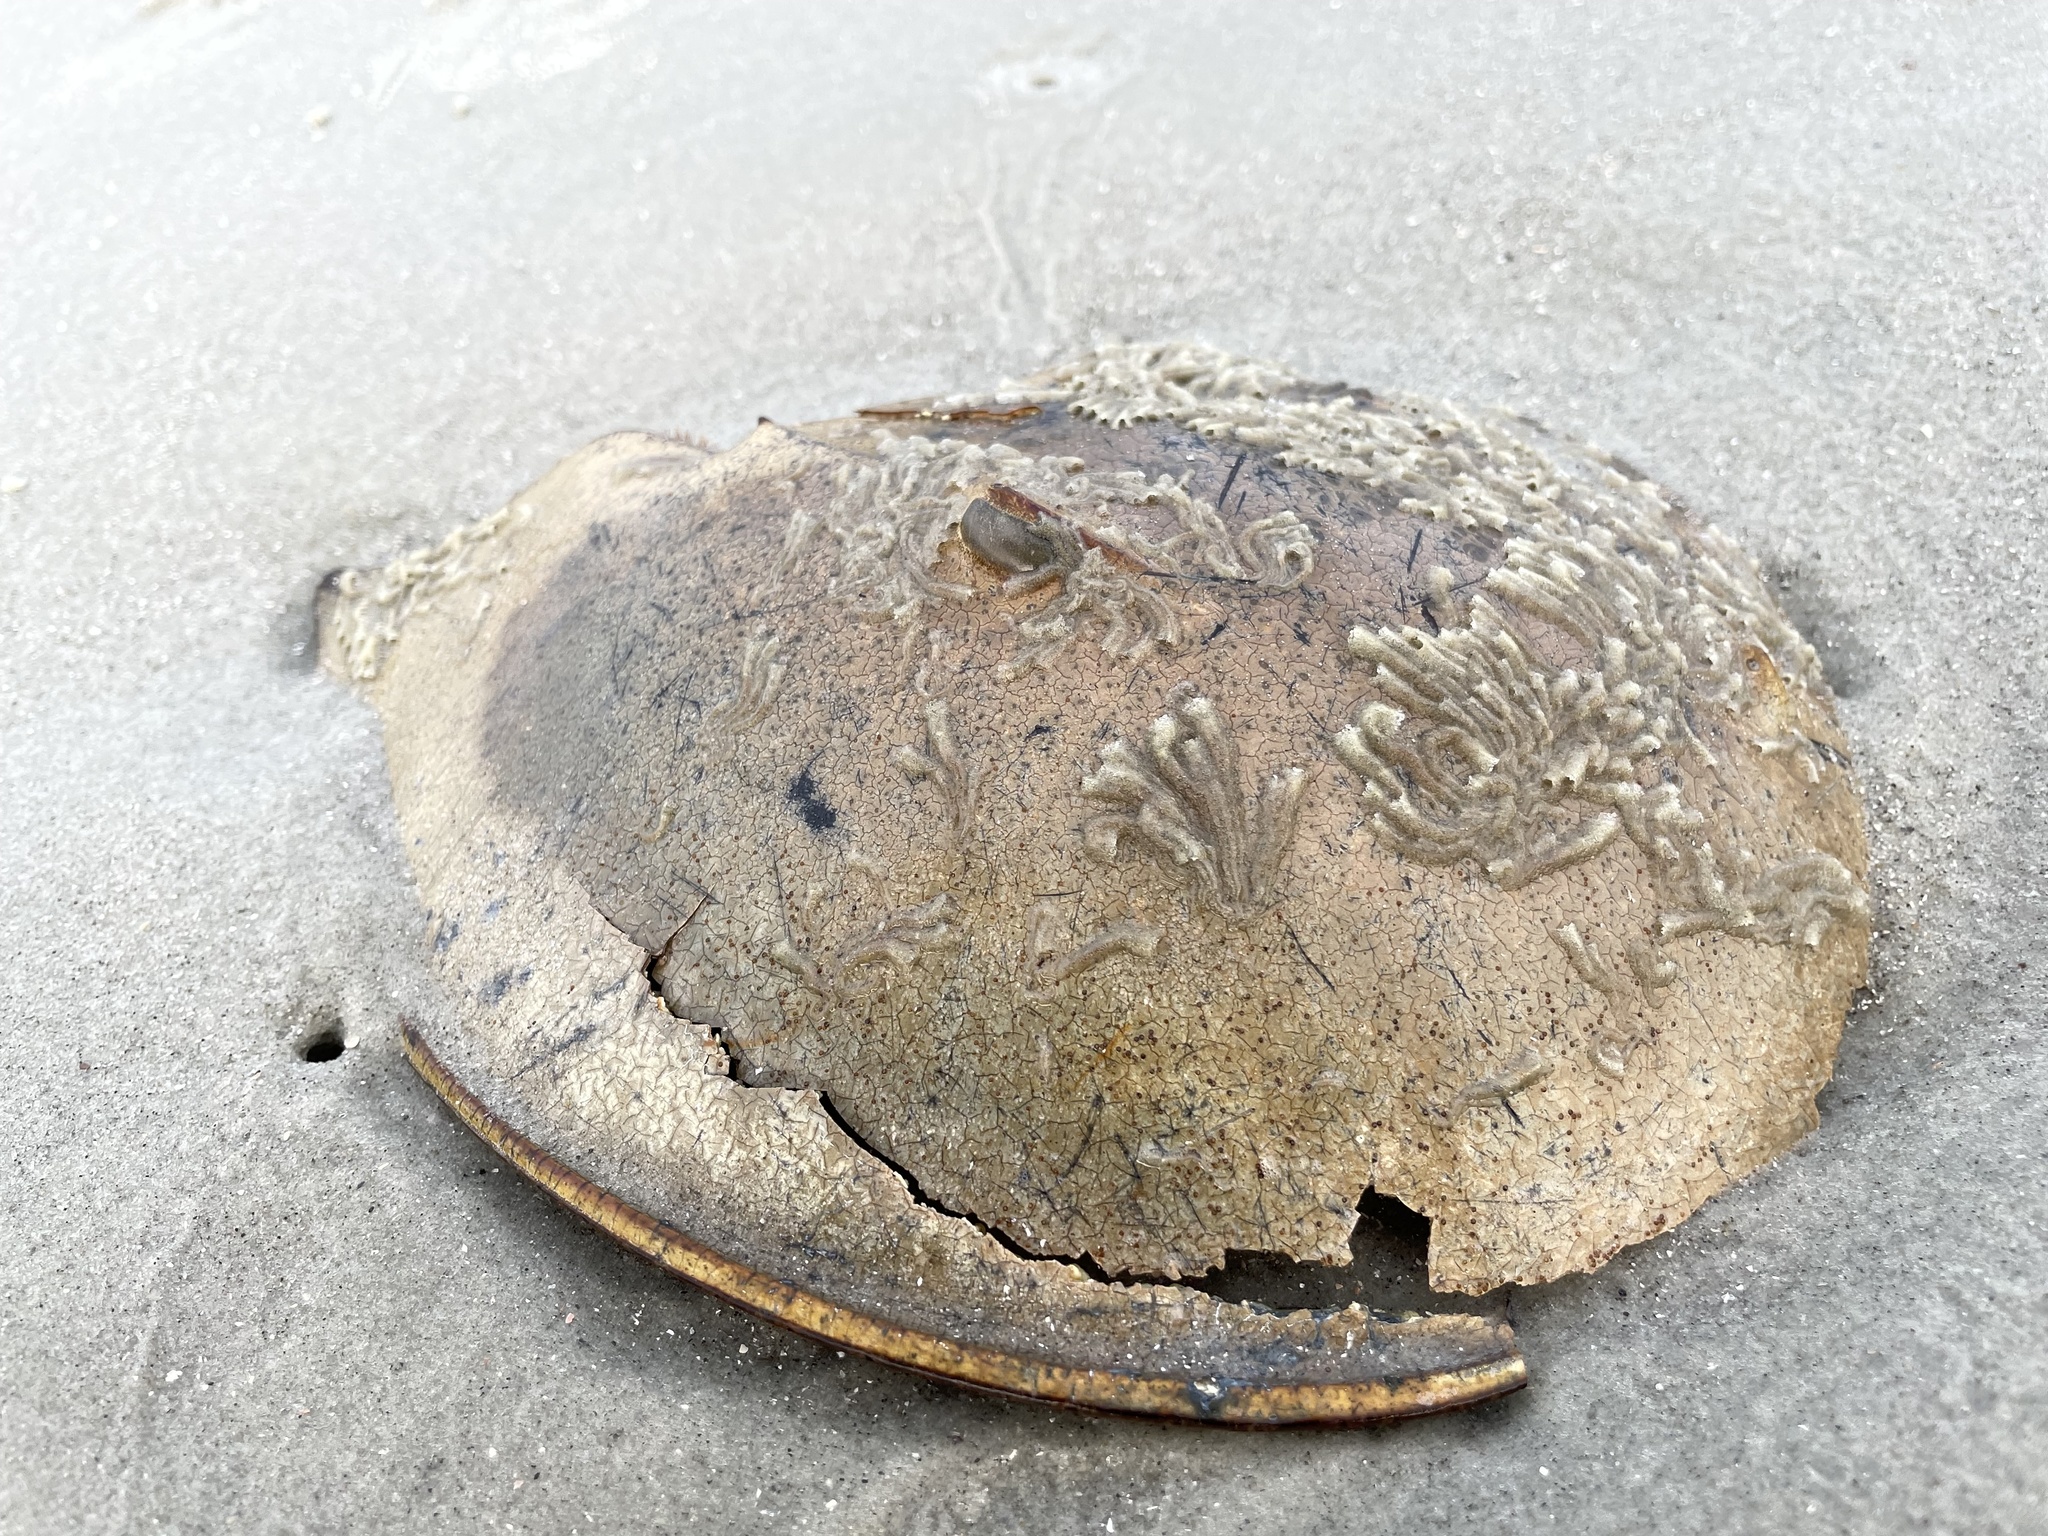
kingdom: Animalia
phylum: Arthropoda
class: Merostomata
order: Xiphosurida
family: Limulidae
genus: Limulus
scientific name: Limulus polyphemus
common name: Horseshoe crab
